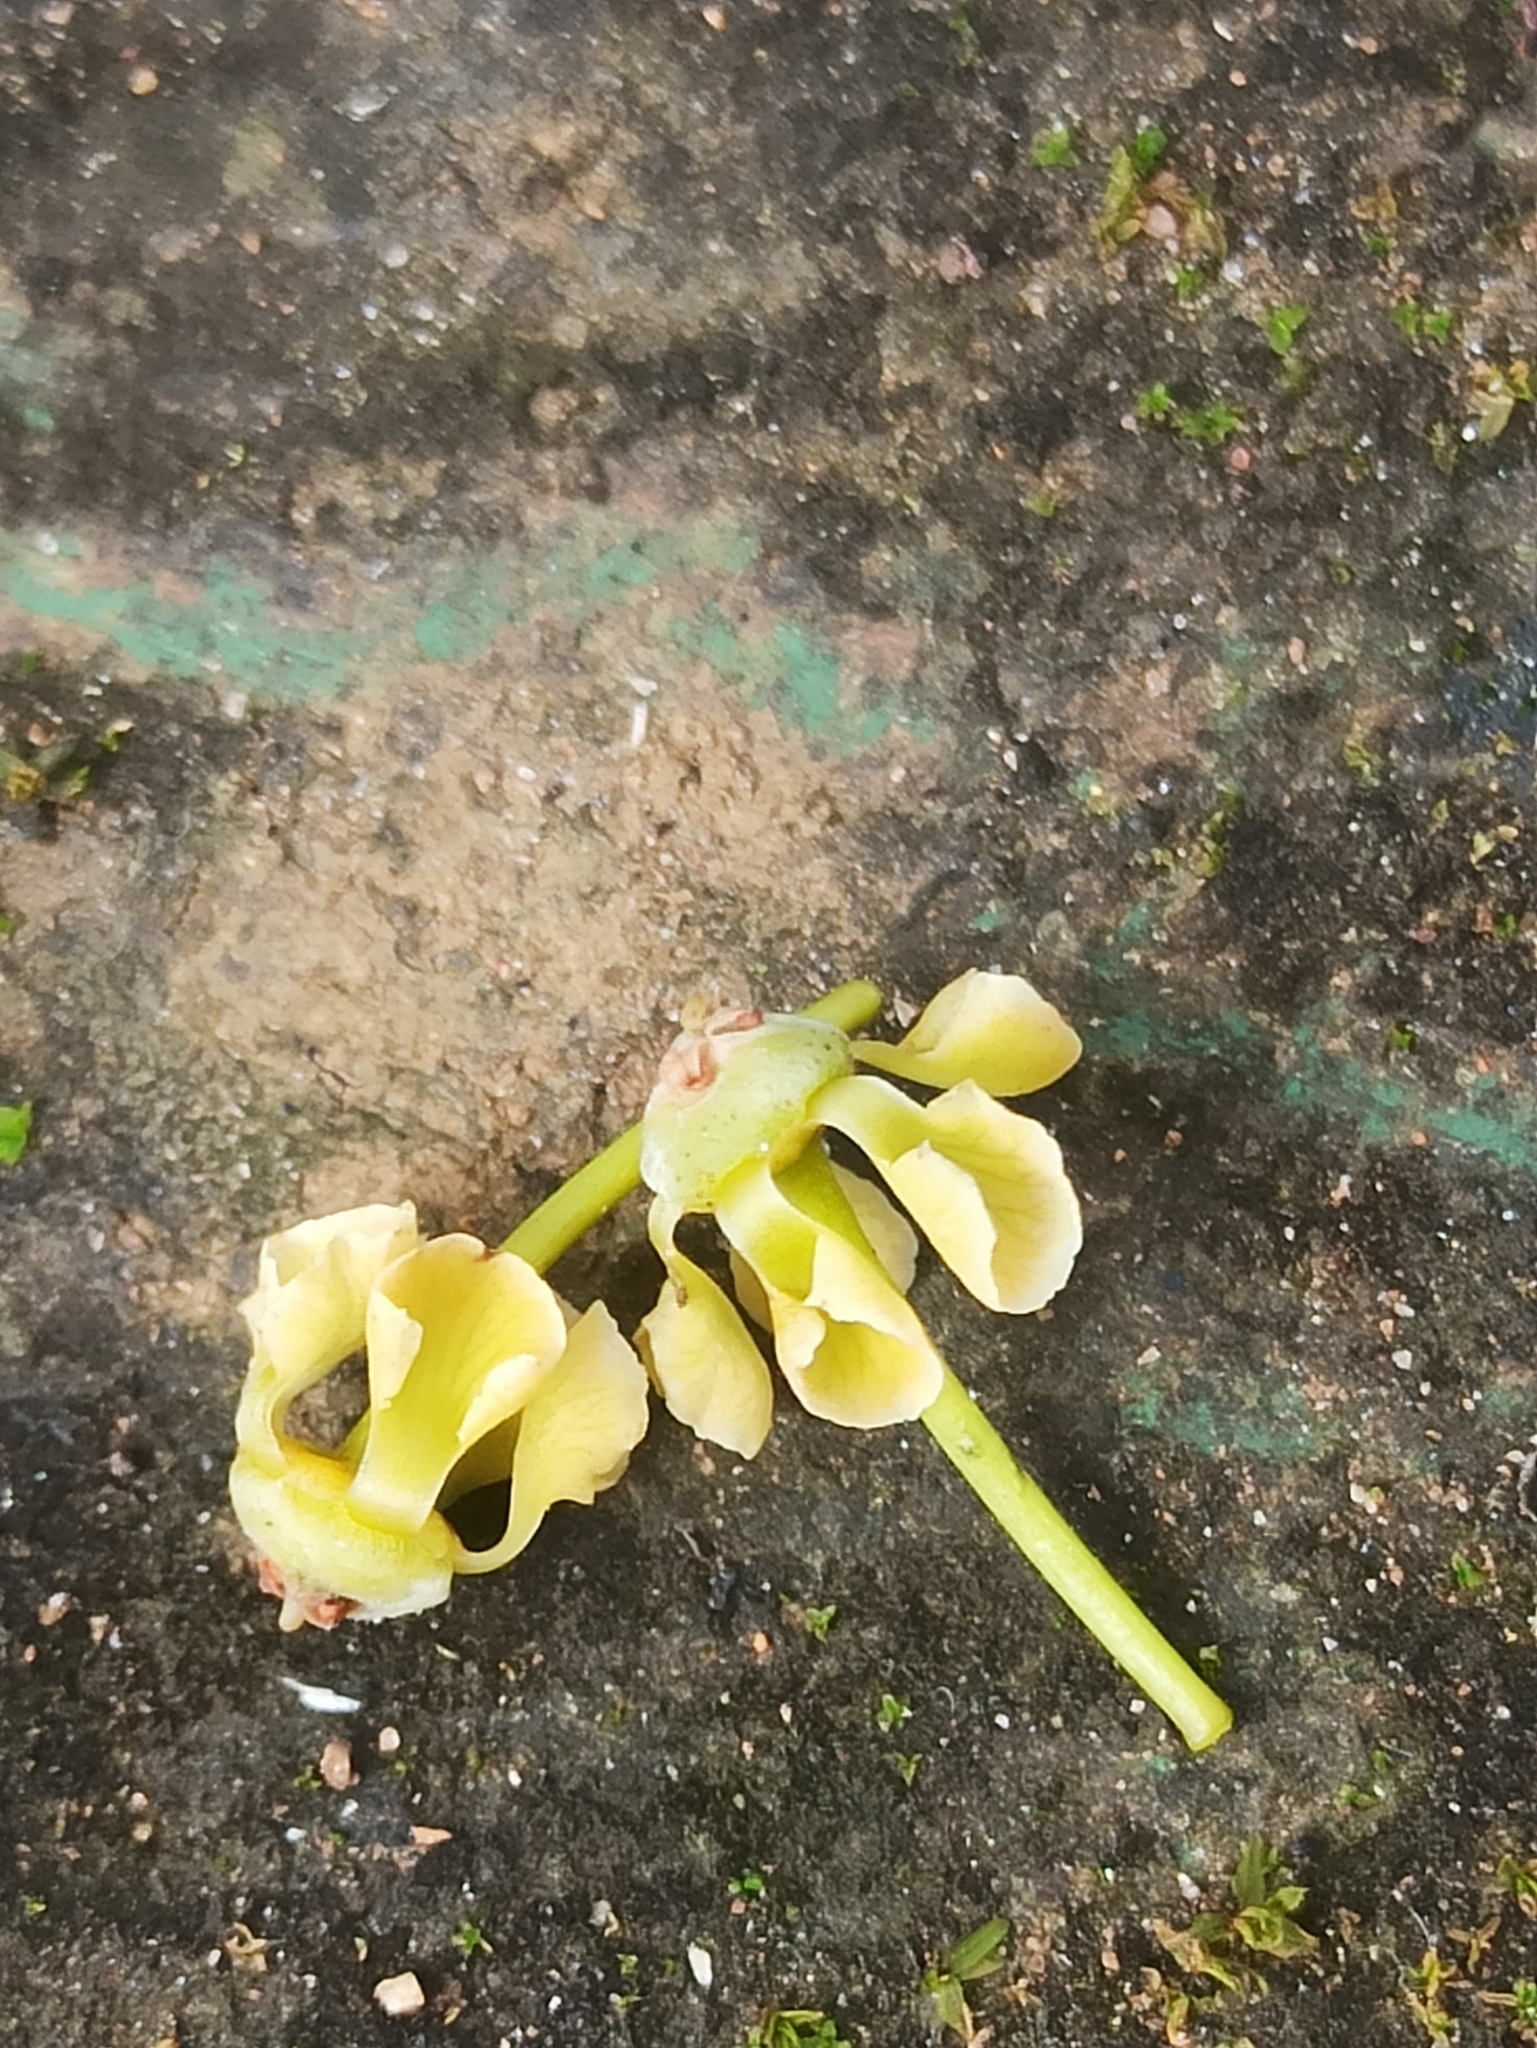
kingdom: Plantae
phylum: Tracheophyta
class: Magnoliopsida
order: Celastrales
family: Celastraceae
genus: Pristimera
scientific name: Pristimera arnottiana
